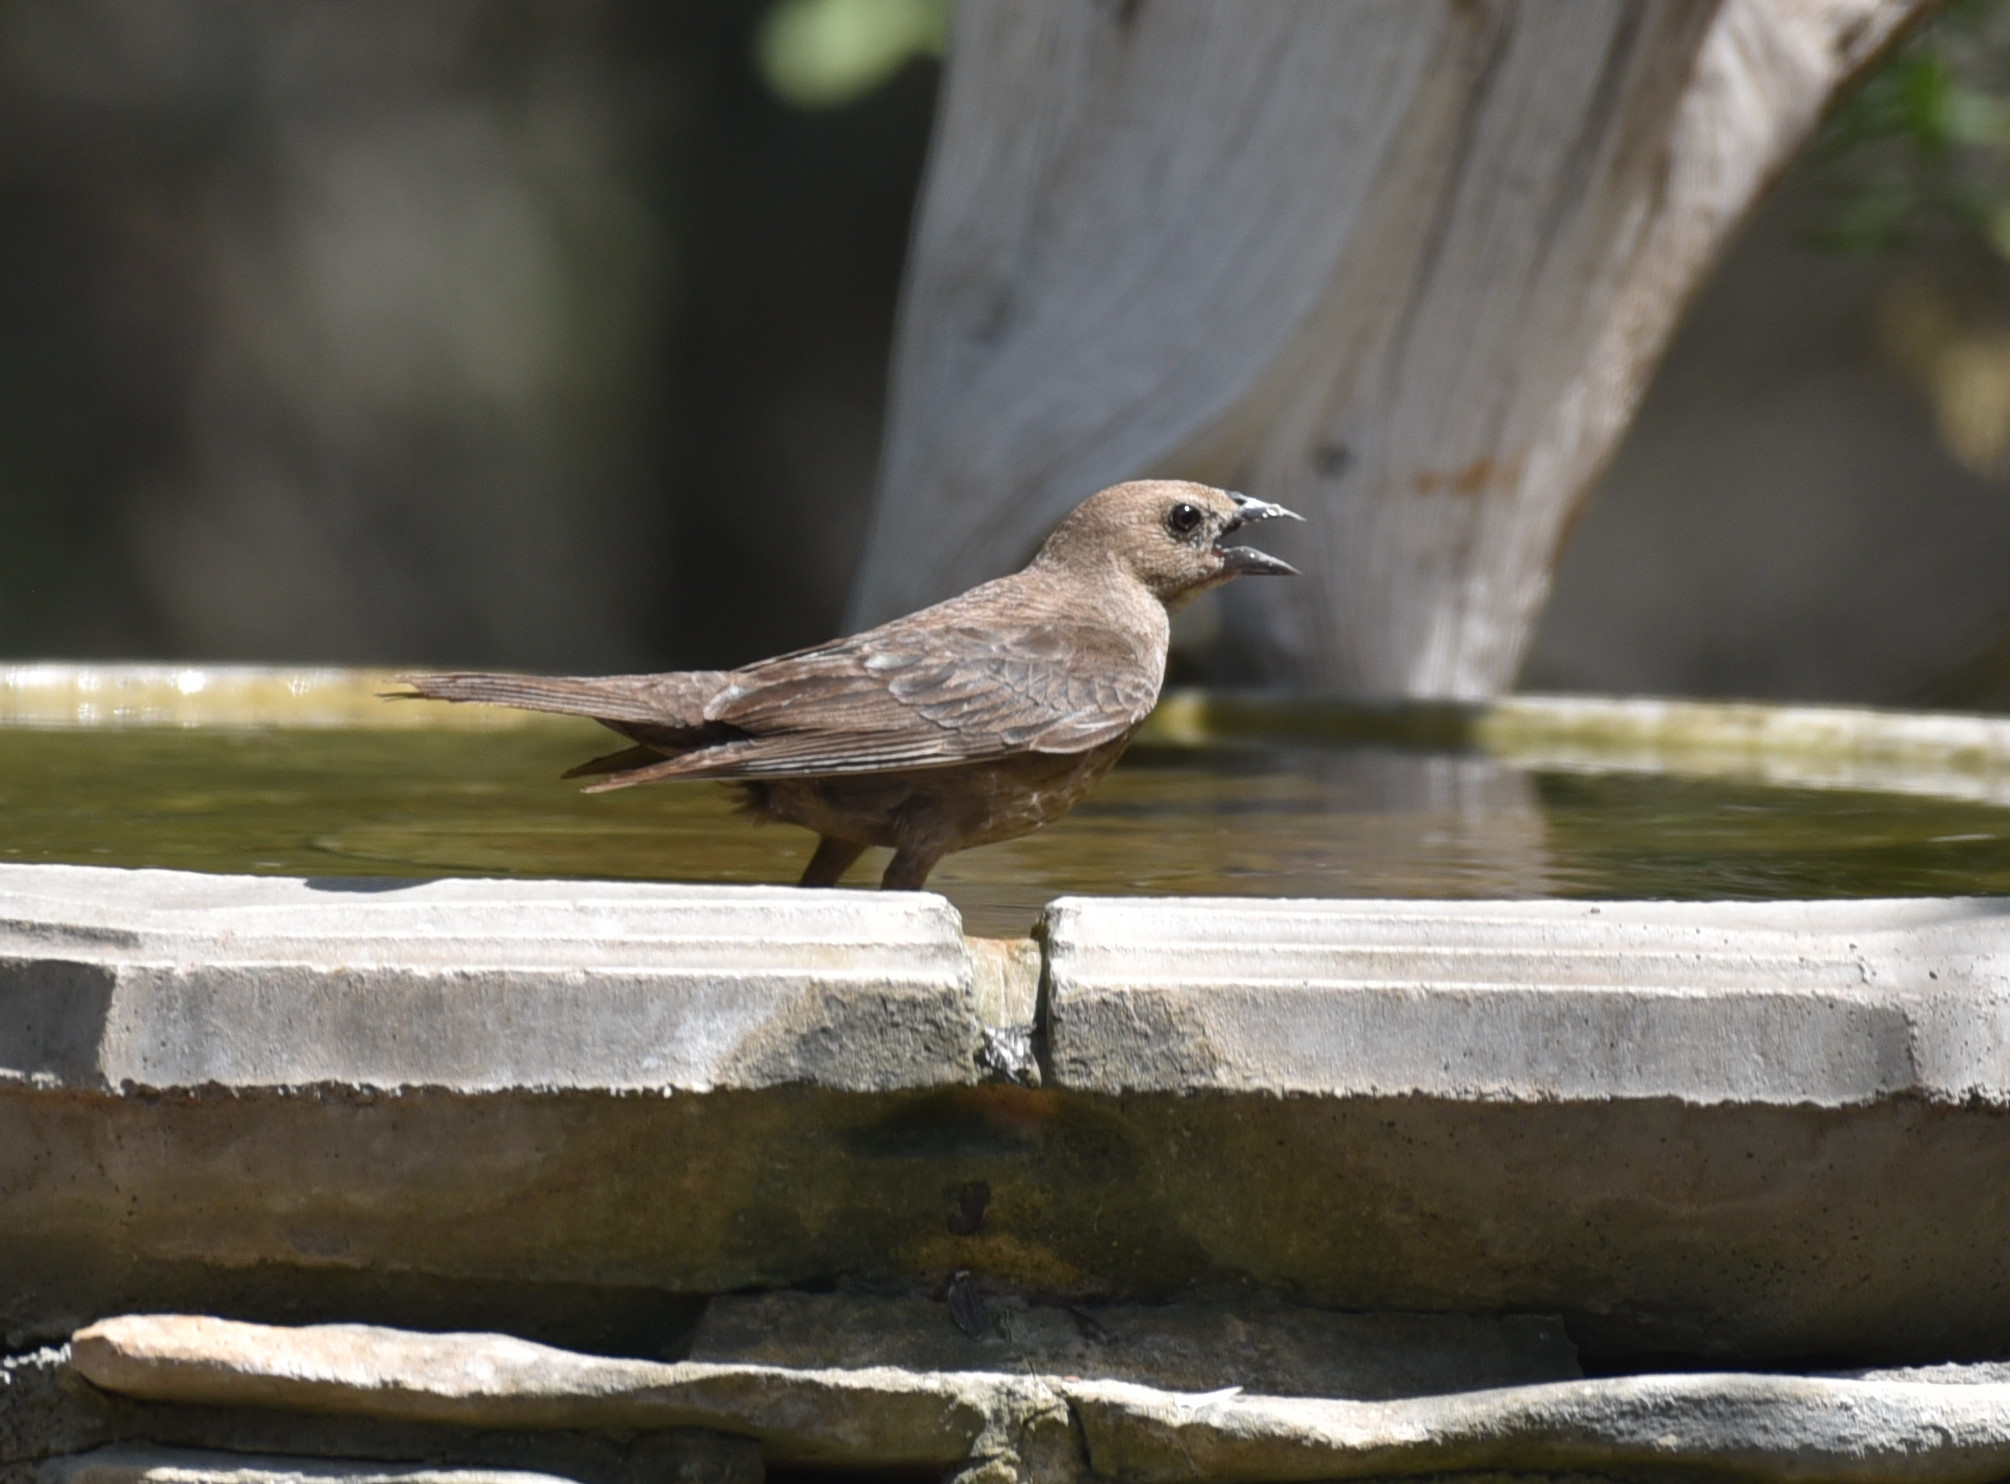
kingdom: Animalia
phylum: Chordata
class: Aves
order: Passeriformes
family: Icteridae
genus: Molothrus
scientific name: Molothrus ater
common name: Brown-headed cowbird
